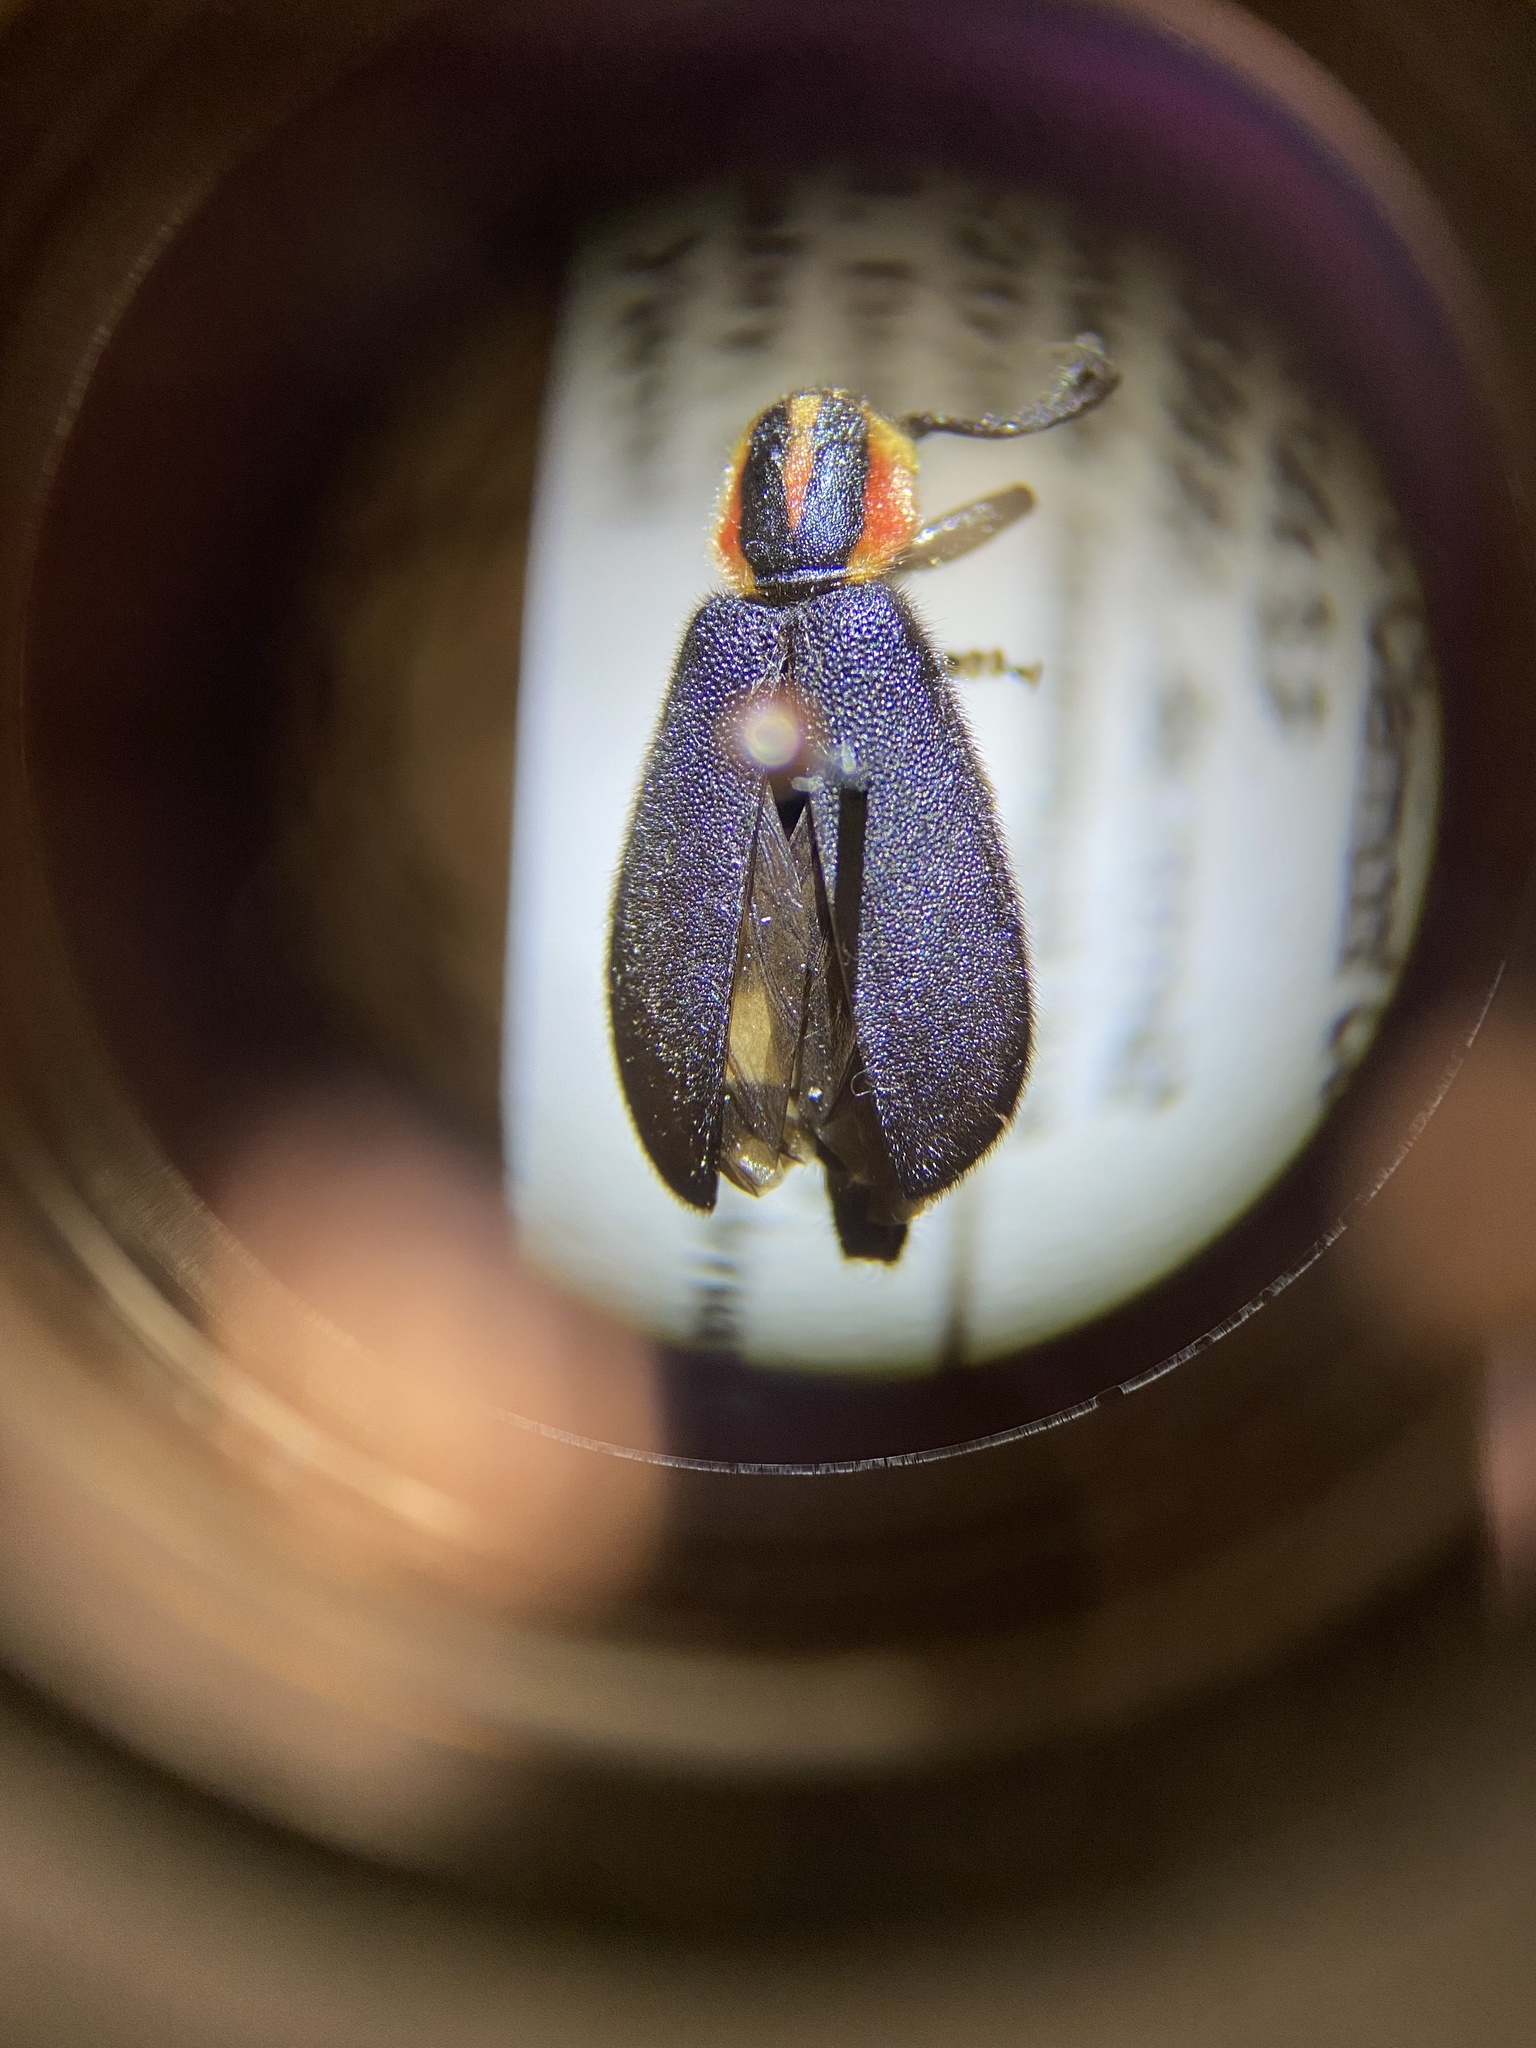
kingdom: Animalia
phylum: Arthropoda
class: Insecta
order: Coleoptera
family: Cleridae
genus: Chariessa
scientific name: Chariessa pilosa
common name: Pilose checkered beetle
